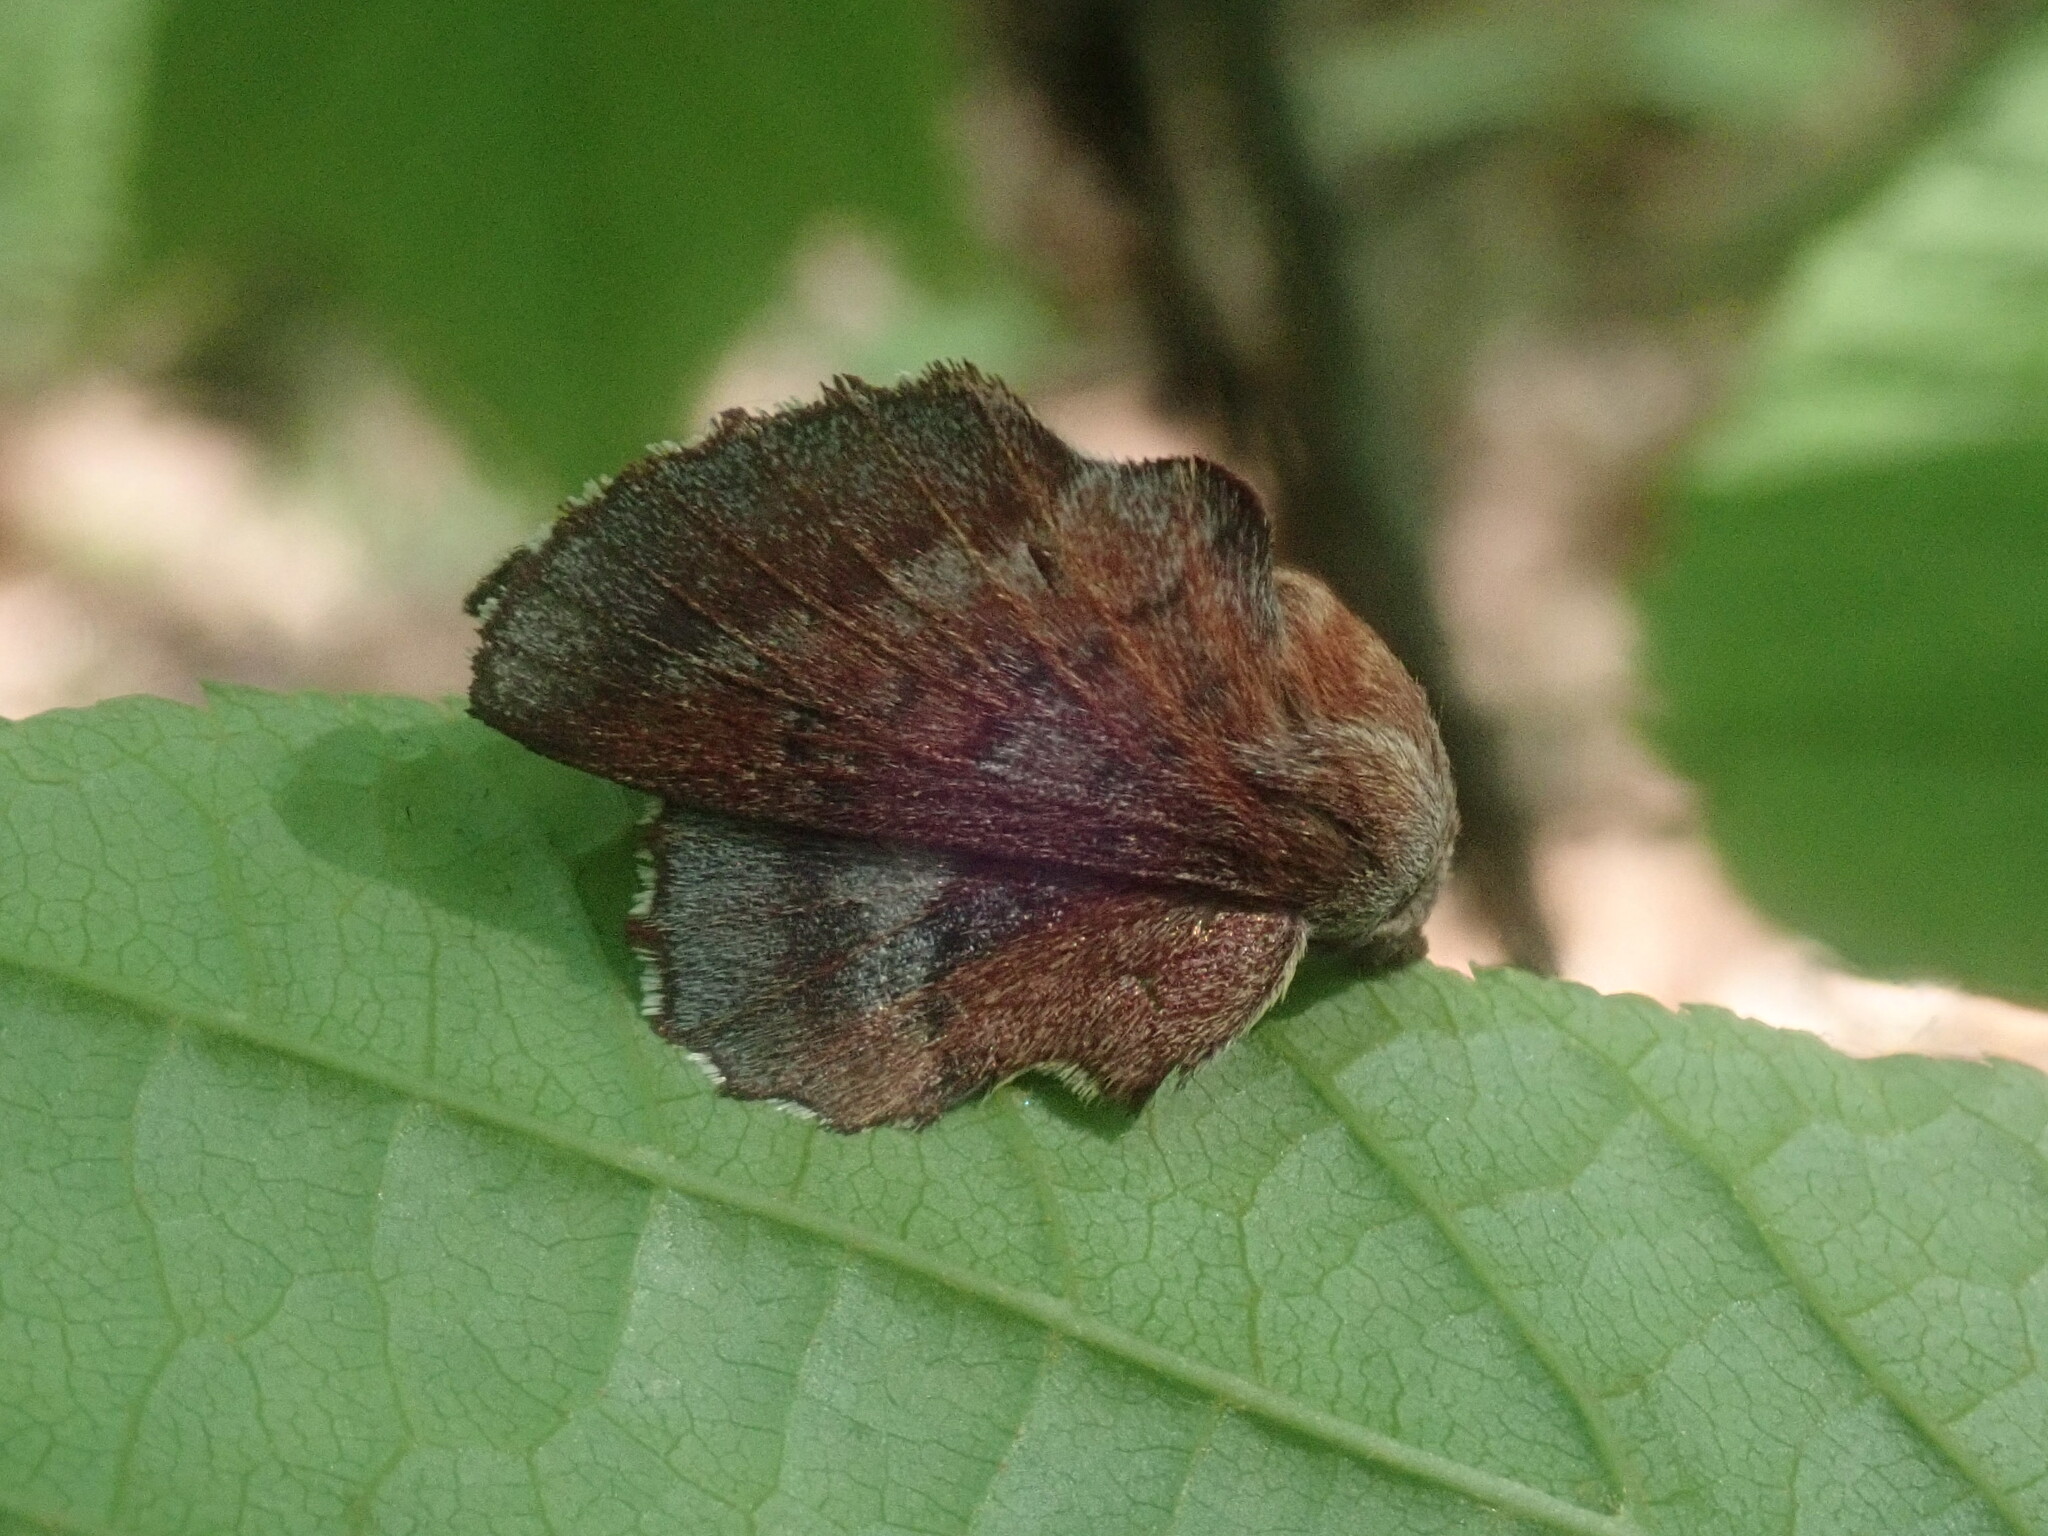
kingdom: Animalia
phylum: Arthropoda
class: Insecta
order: Lepidoptera
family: Lasiocampidae
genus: Phyllodesma
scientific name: Phyllodesma americana
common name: American lappet moth
